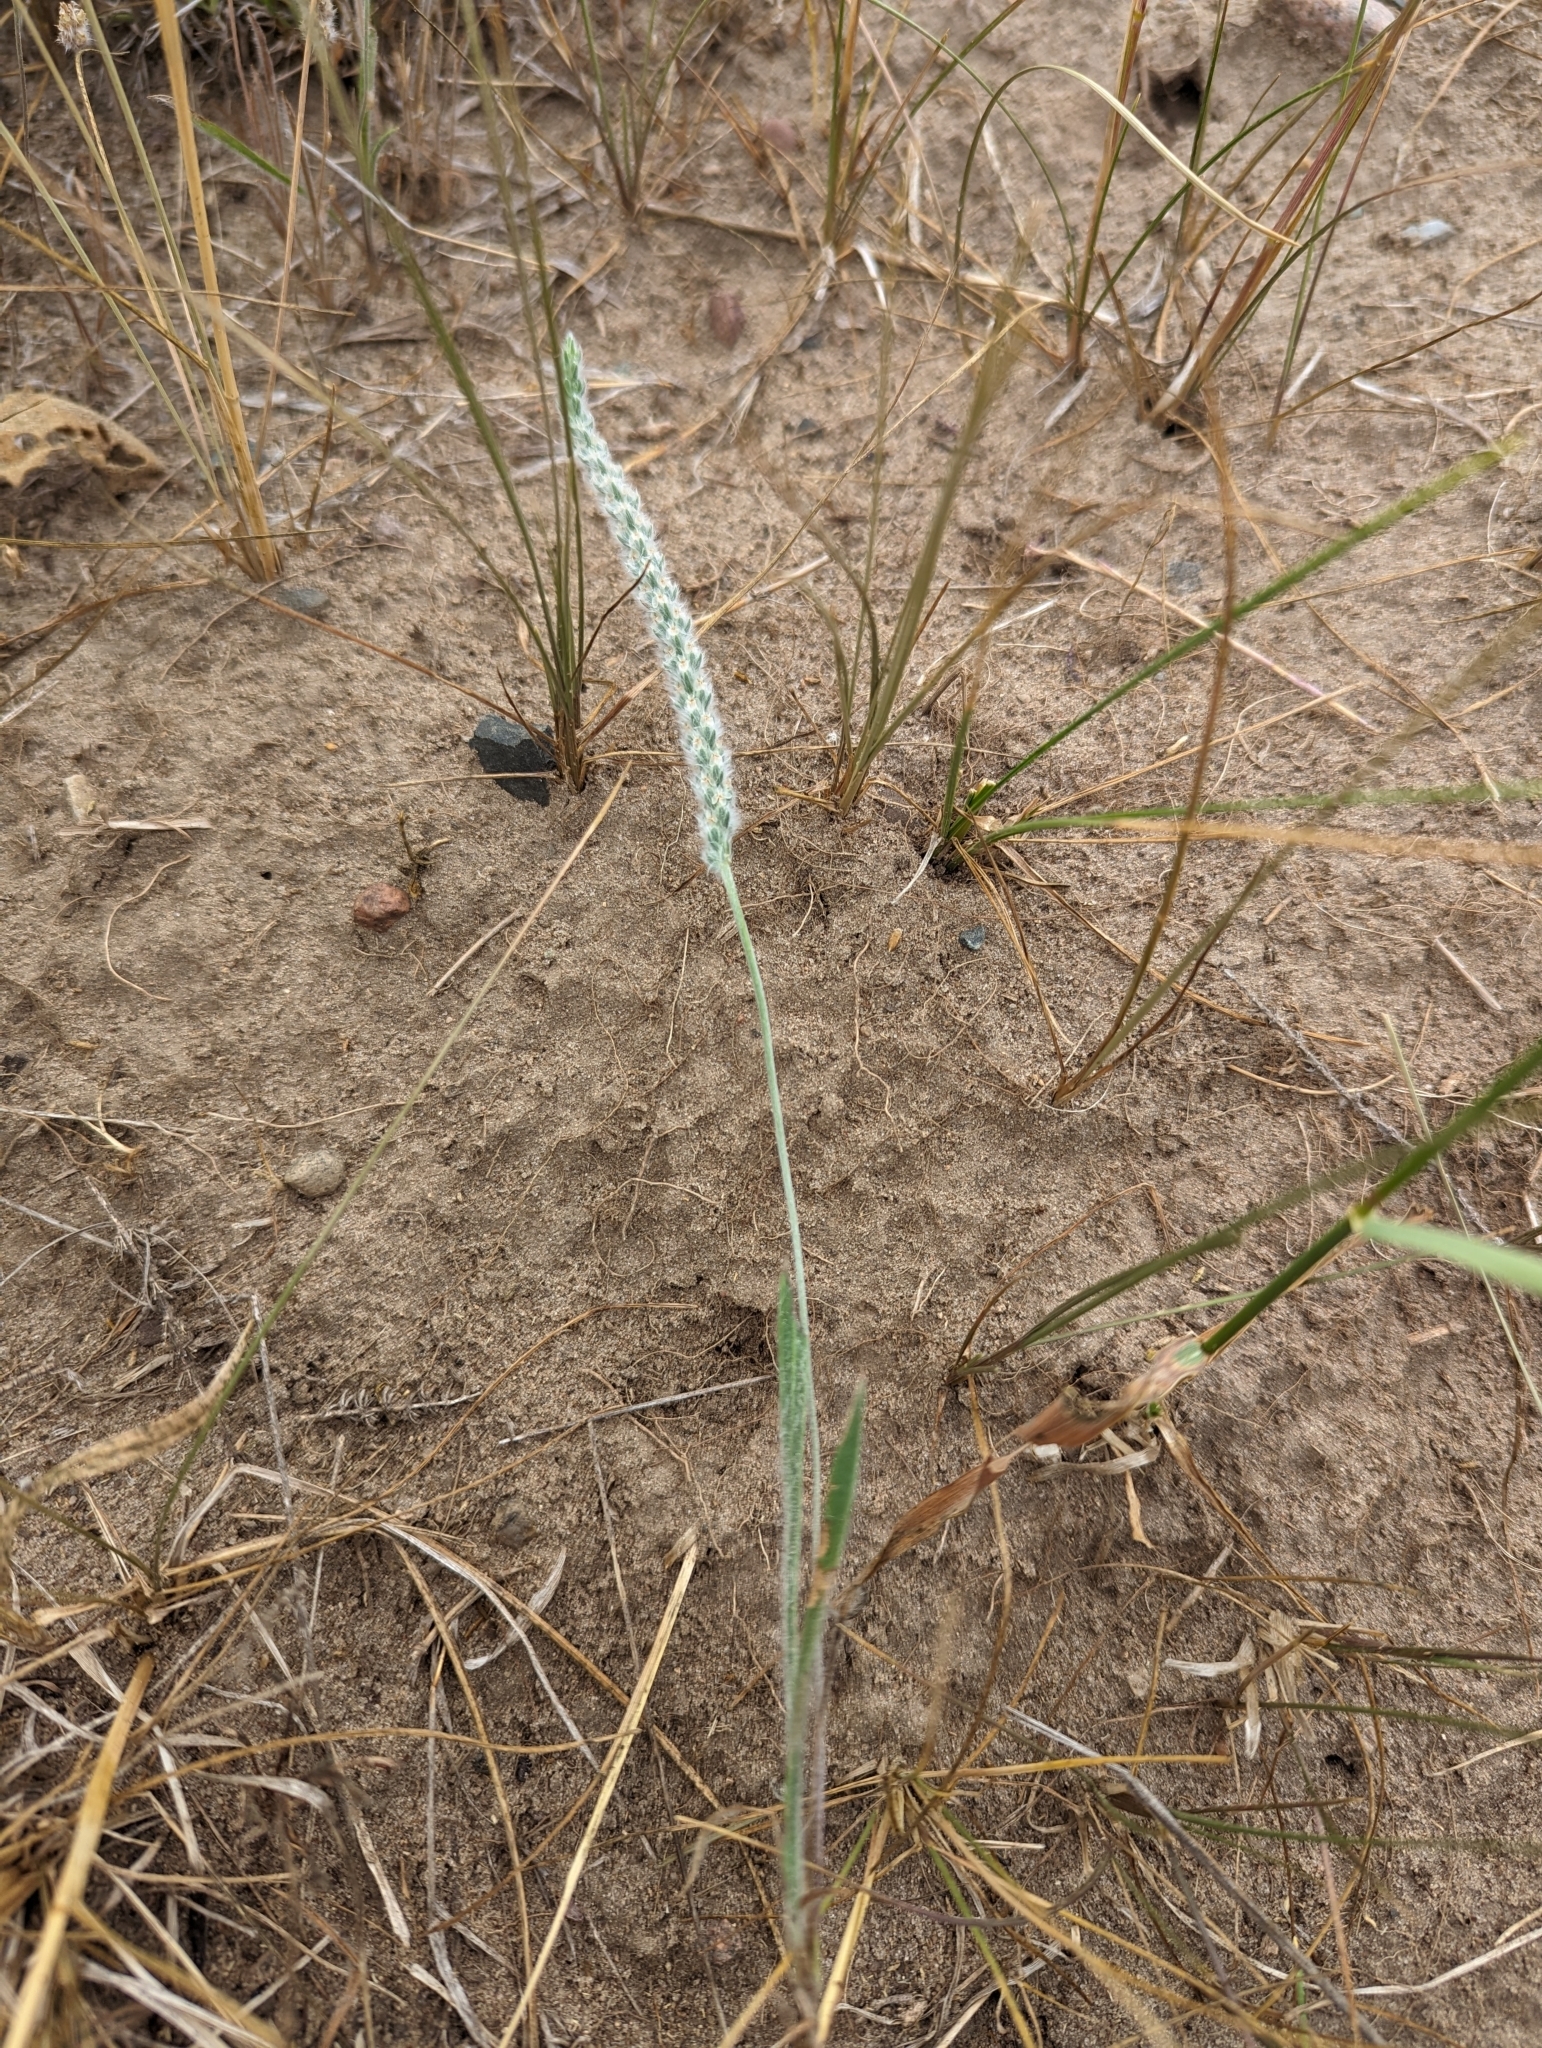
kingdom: Plantae
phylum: Tracheophyta
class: Magnoliopsida
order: Lamiales
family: Plantaginaceae
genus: Plantago
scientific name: Plantago patagonica
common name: Patagonia indian-wheat
